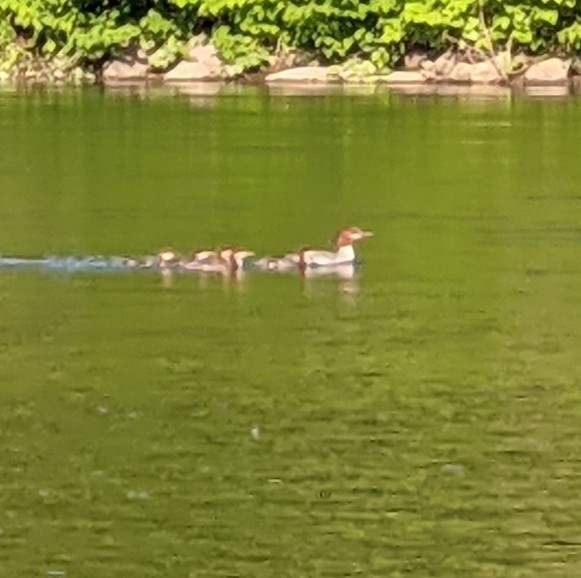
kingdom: Animalia
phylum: Chordata
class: Aves
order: Anseriformes
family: Anatidae
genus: Mergus
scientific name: Mergus merganser
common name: Common merganser
